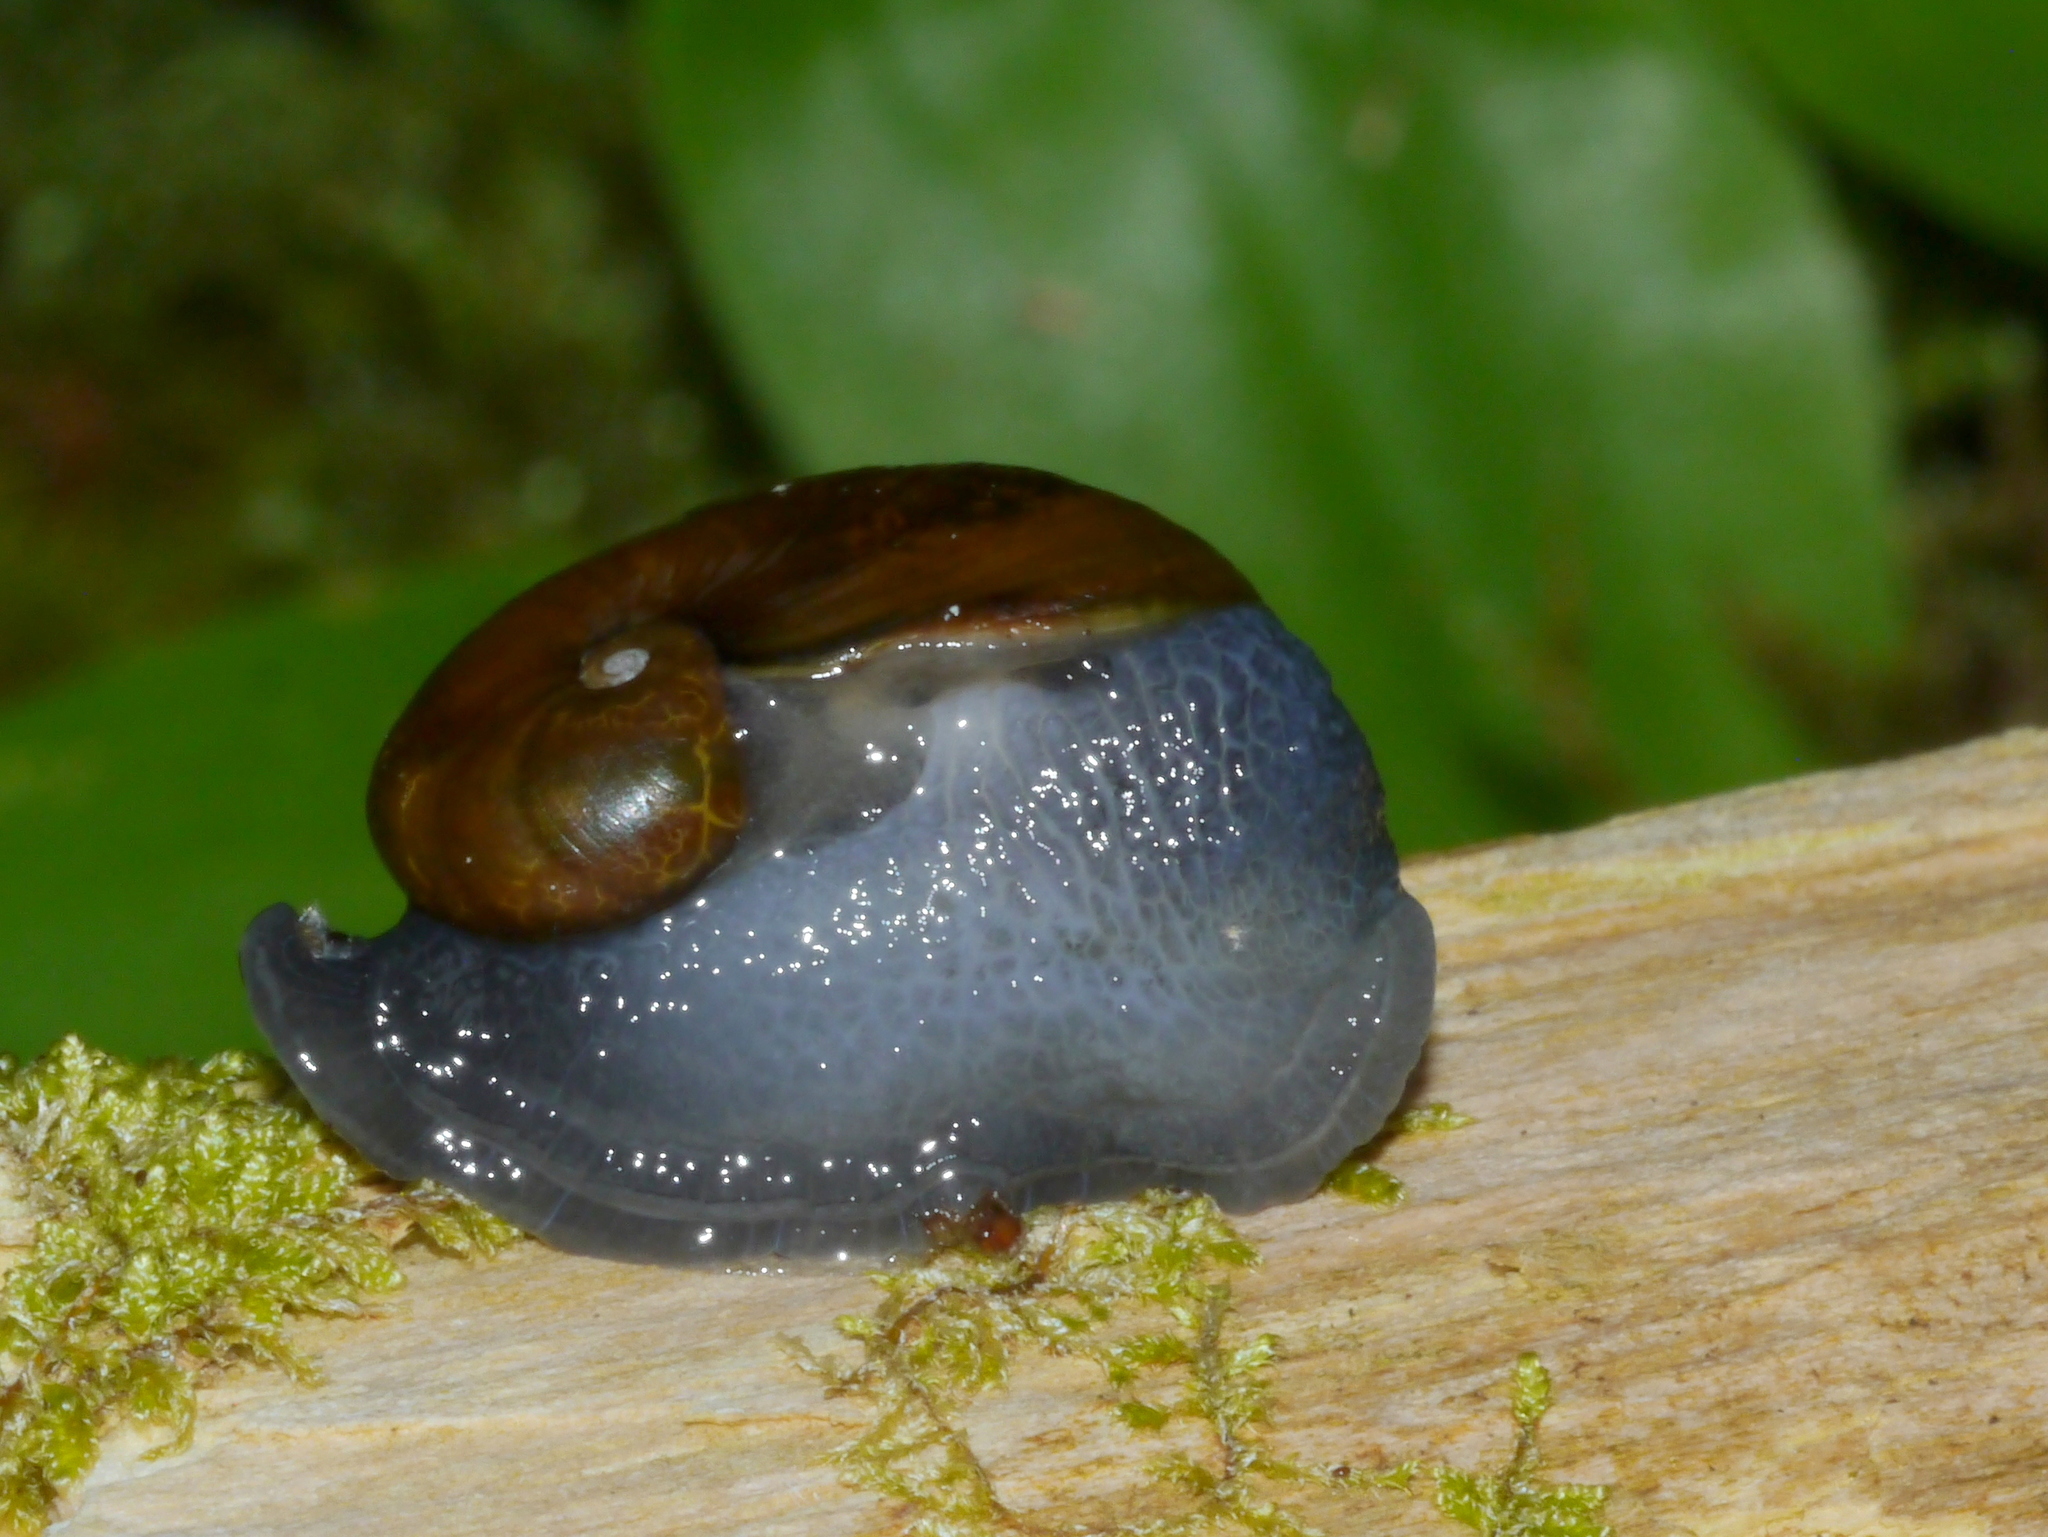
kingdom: Animalia
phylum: Mollusca
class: Gastropoda
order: Stylommatophora
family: Gastrodontidae
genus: Vitrinizonites
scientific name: Vitrinizonites latissimus
